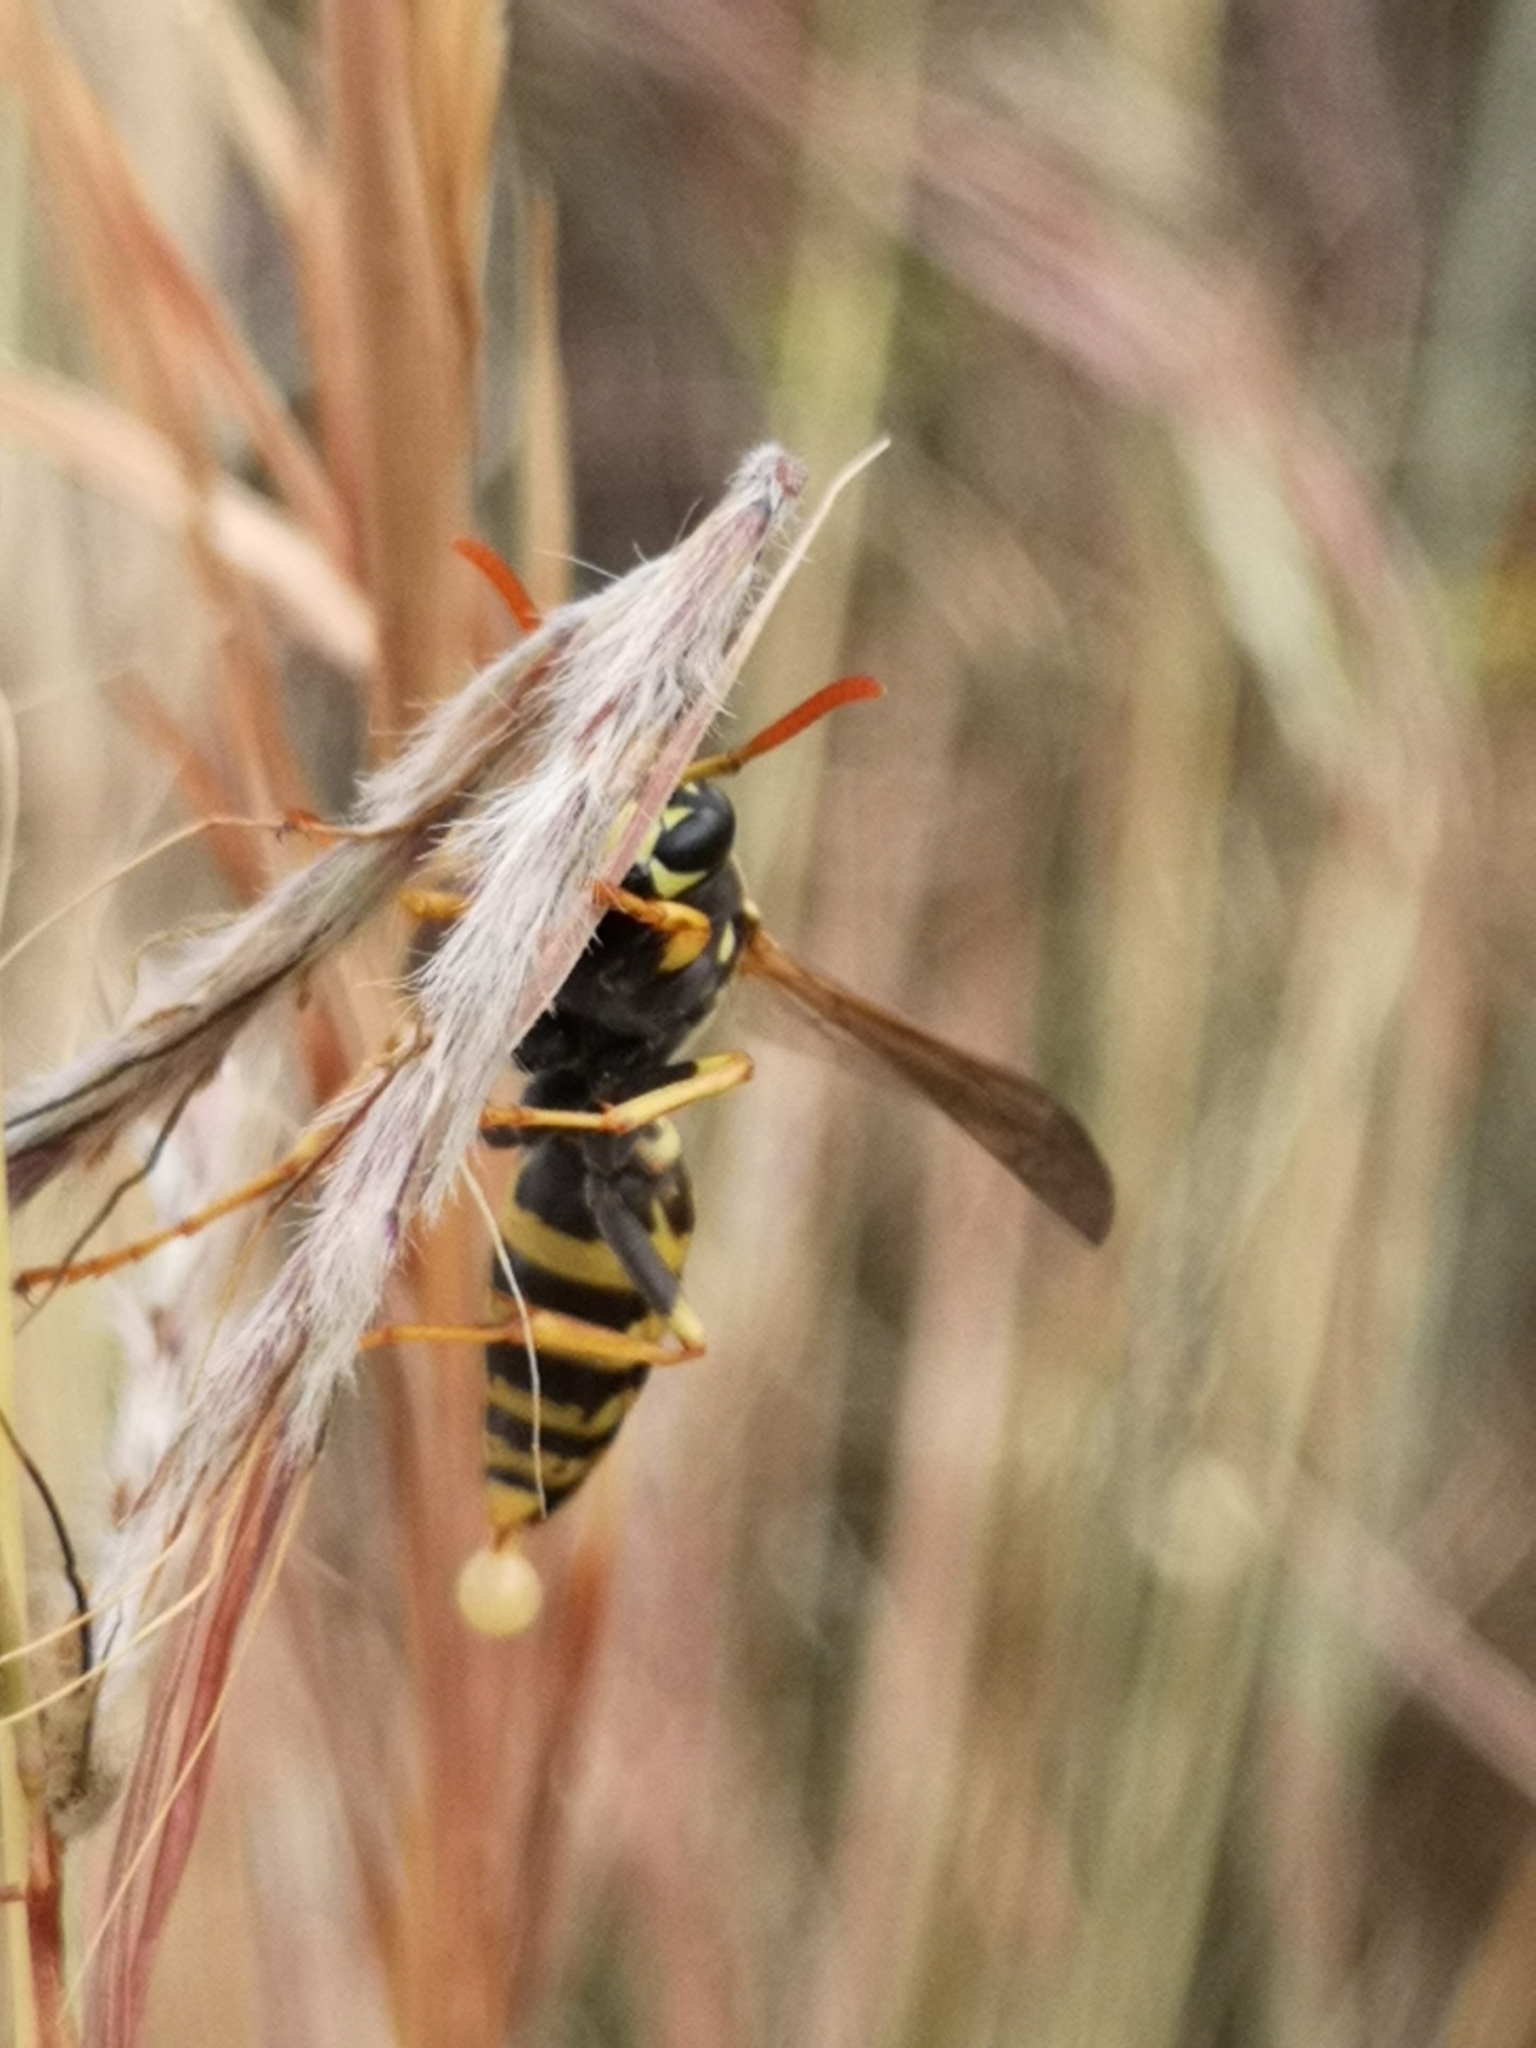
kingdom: Animalia
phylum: Arthropoda
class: Insecta
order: Hymenoptera
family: Eumenidae
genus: Polistes
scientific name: Polistes dominula
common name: Paper wasp
